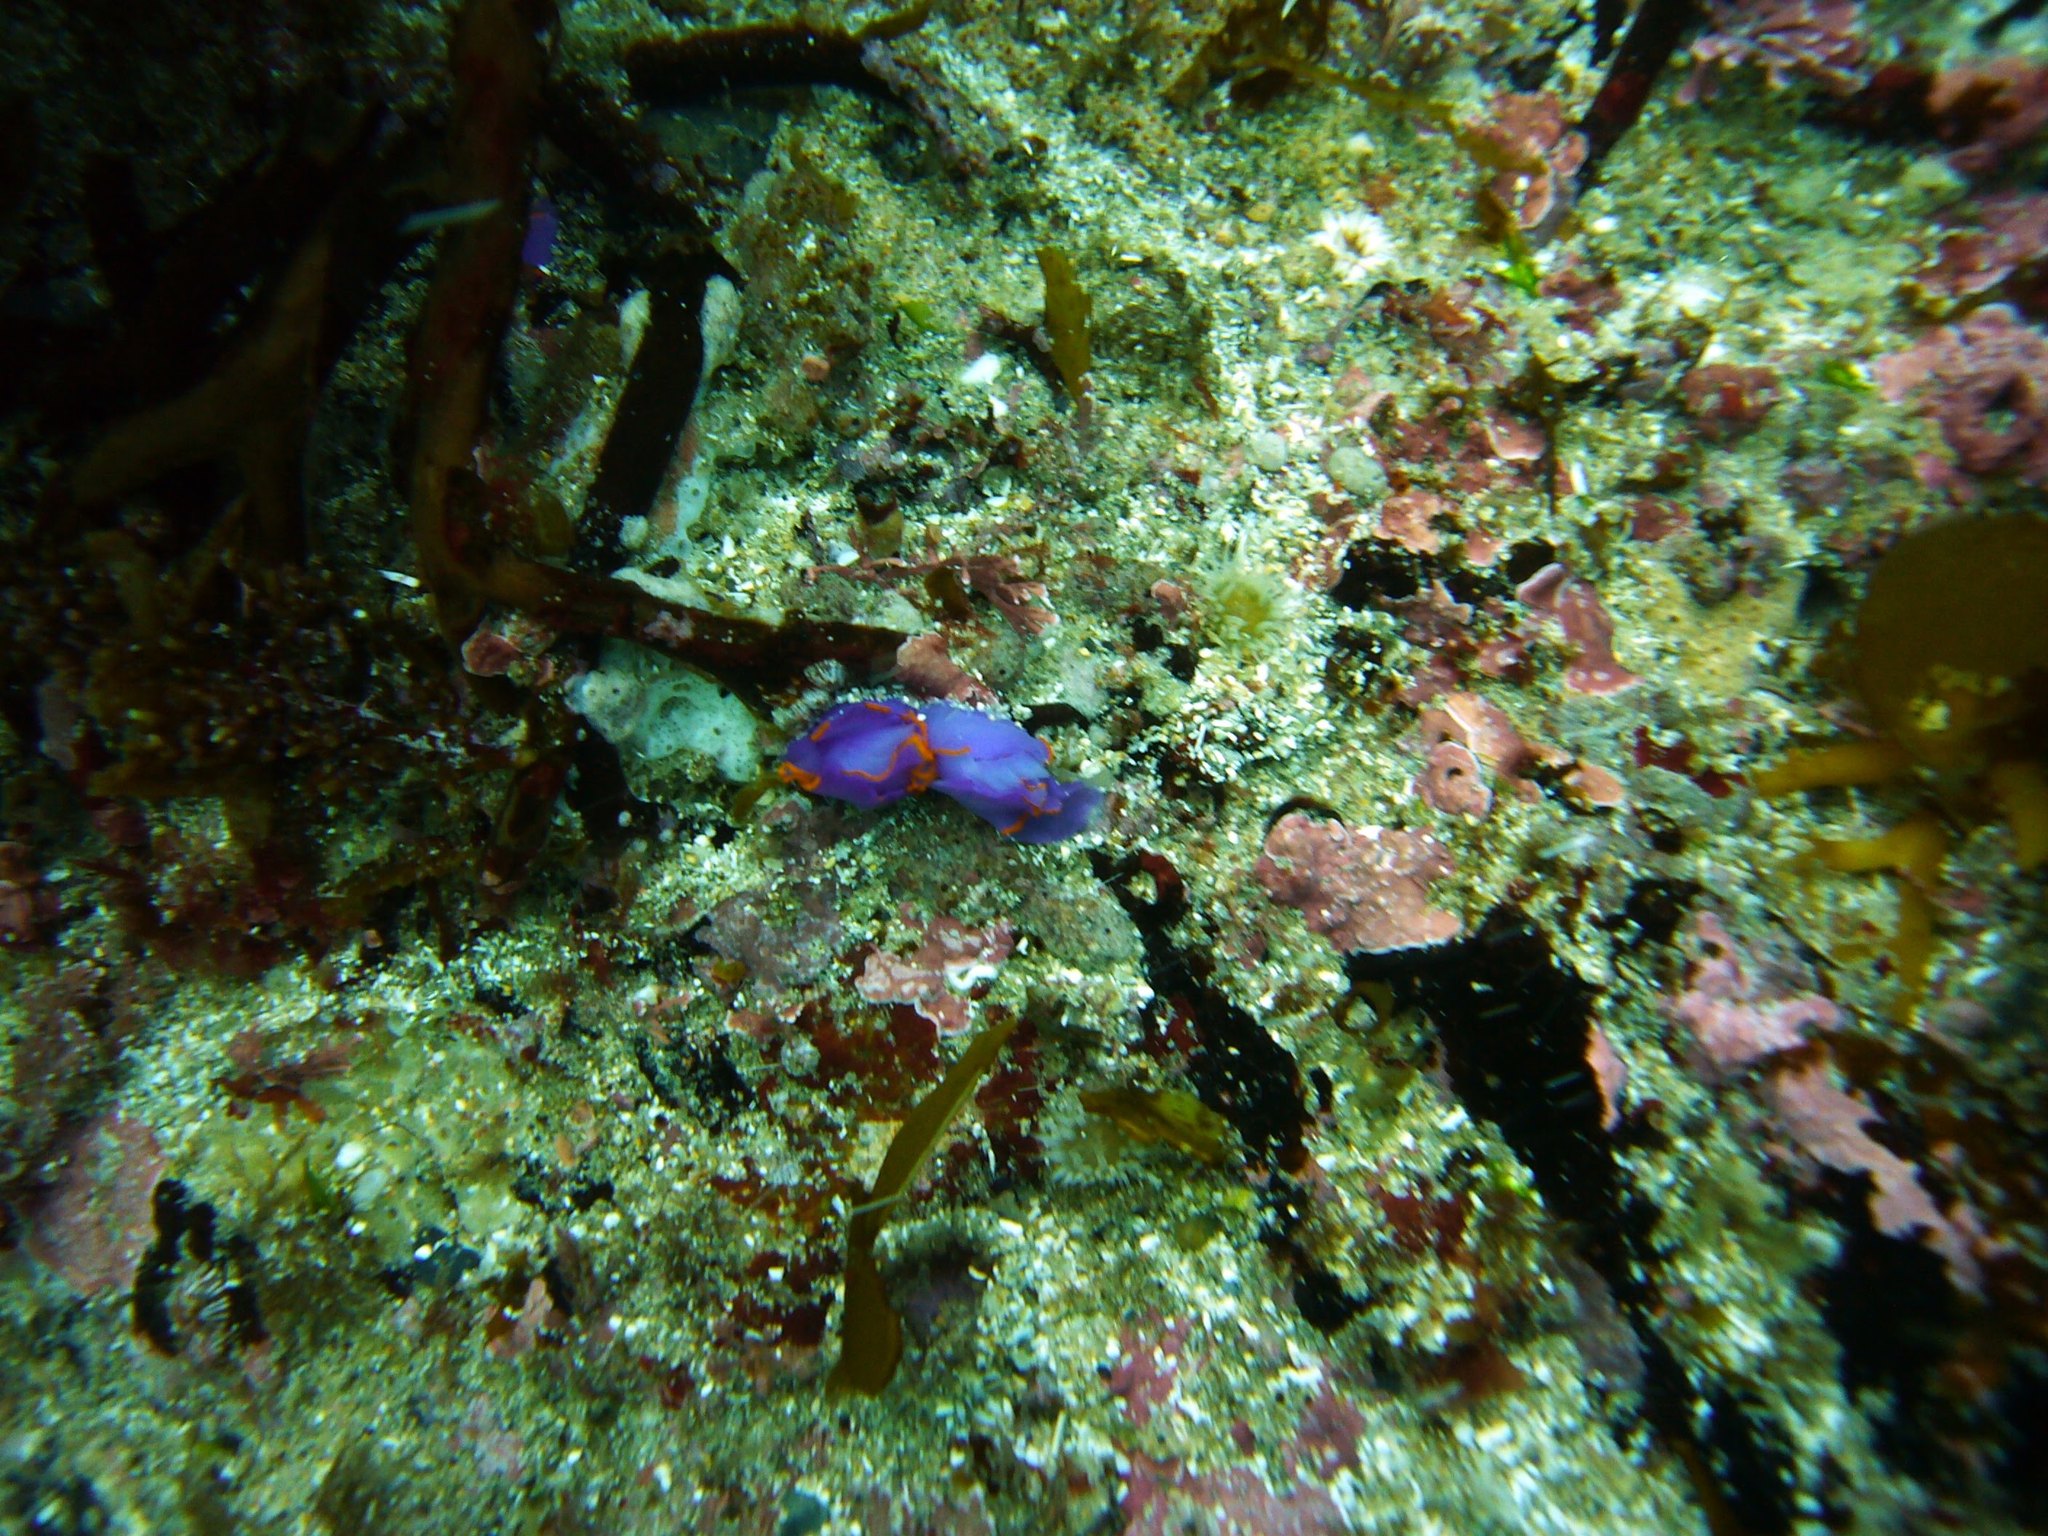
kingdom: Animalia
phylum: Mollusca
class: Gastropoda
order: Cephalaspidea
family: Gastropteridae
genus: Sagaminopteron
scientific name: Sagaminopteron ornatum
